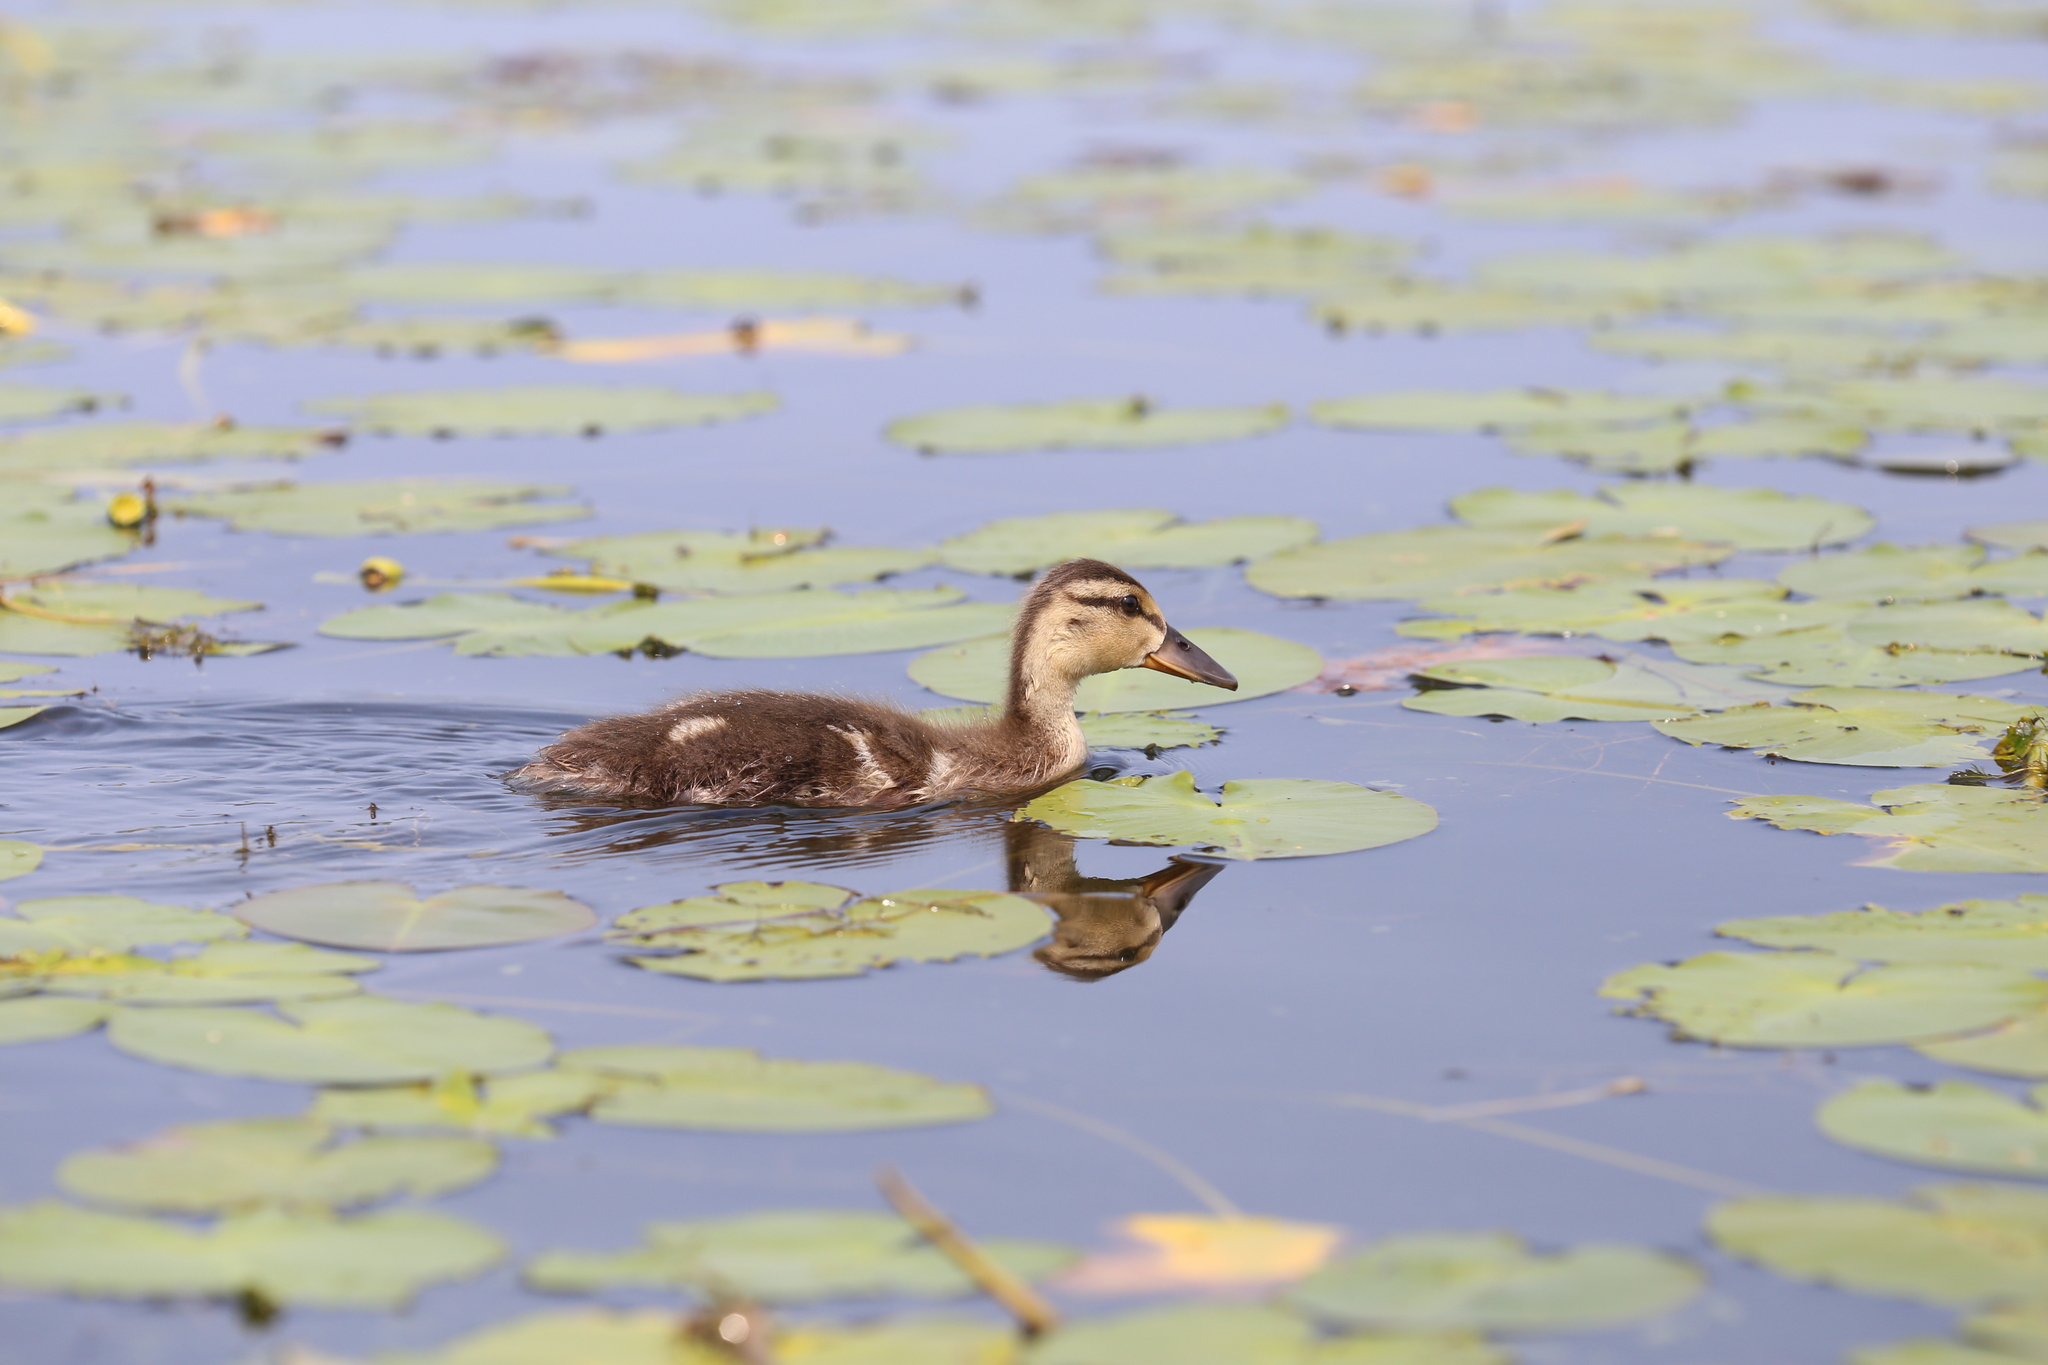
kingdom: Animalia
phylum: Chordata
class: Aves
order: Anseriformes
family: Anatidae
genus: Anas
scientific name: Anas platyrhynchos
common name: Mallard
